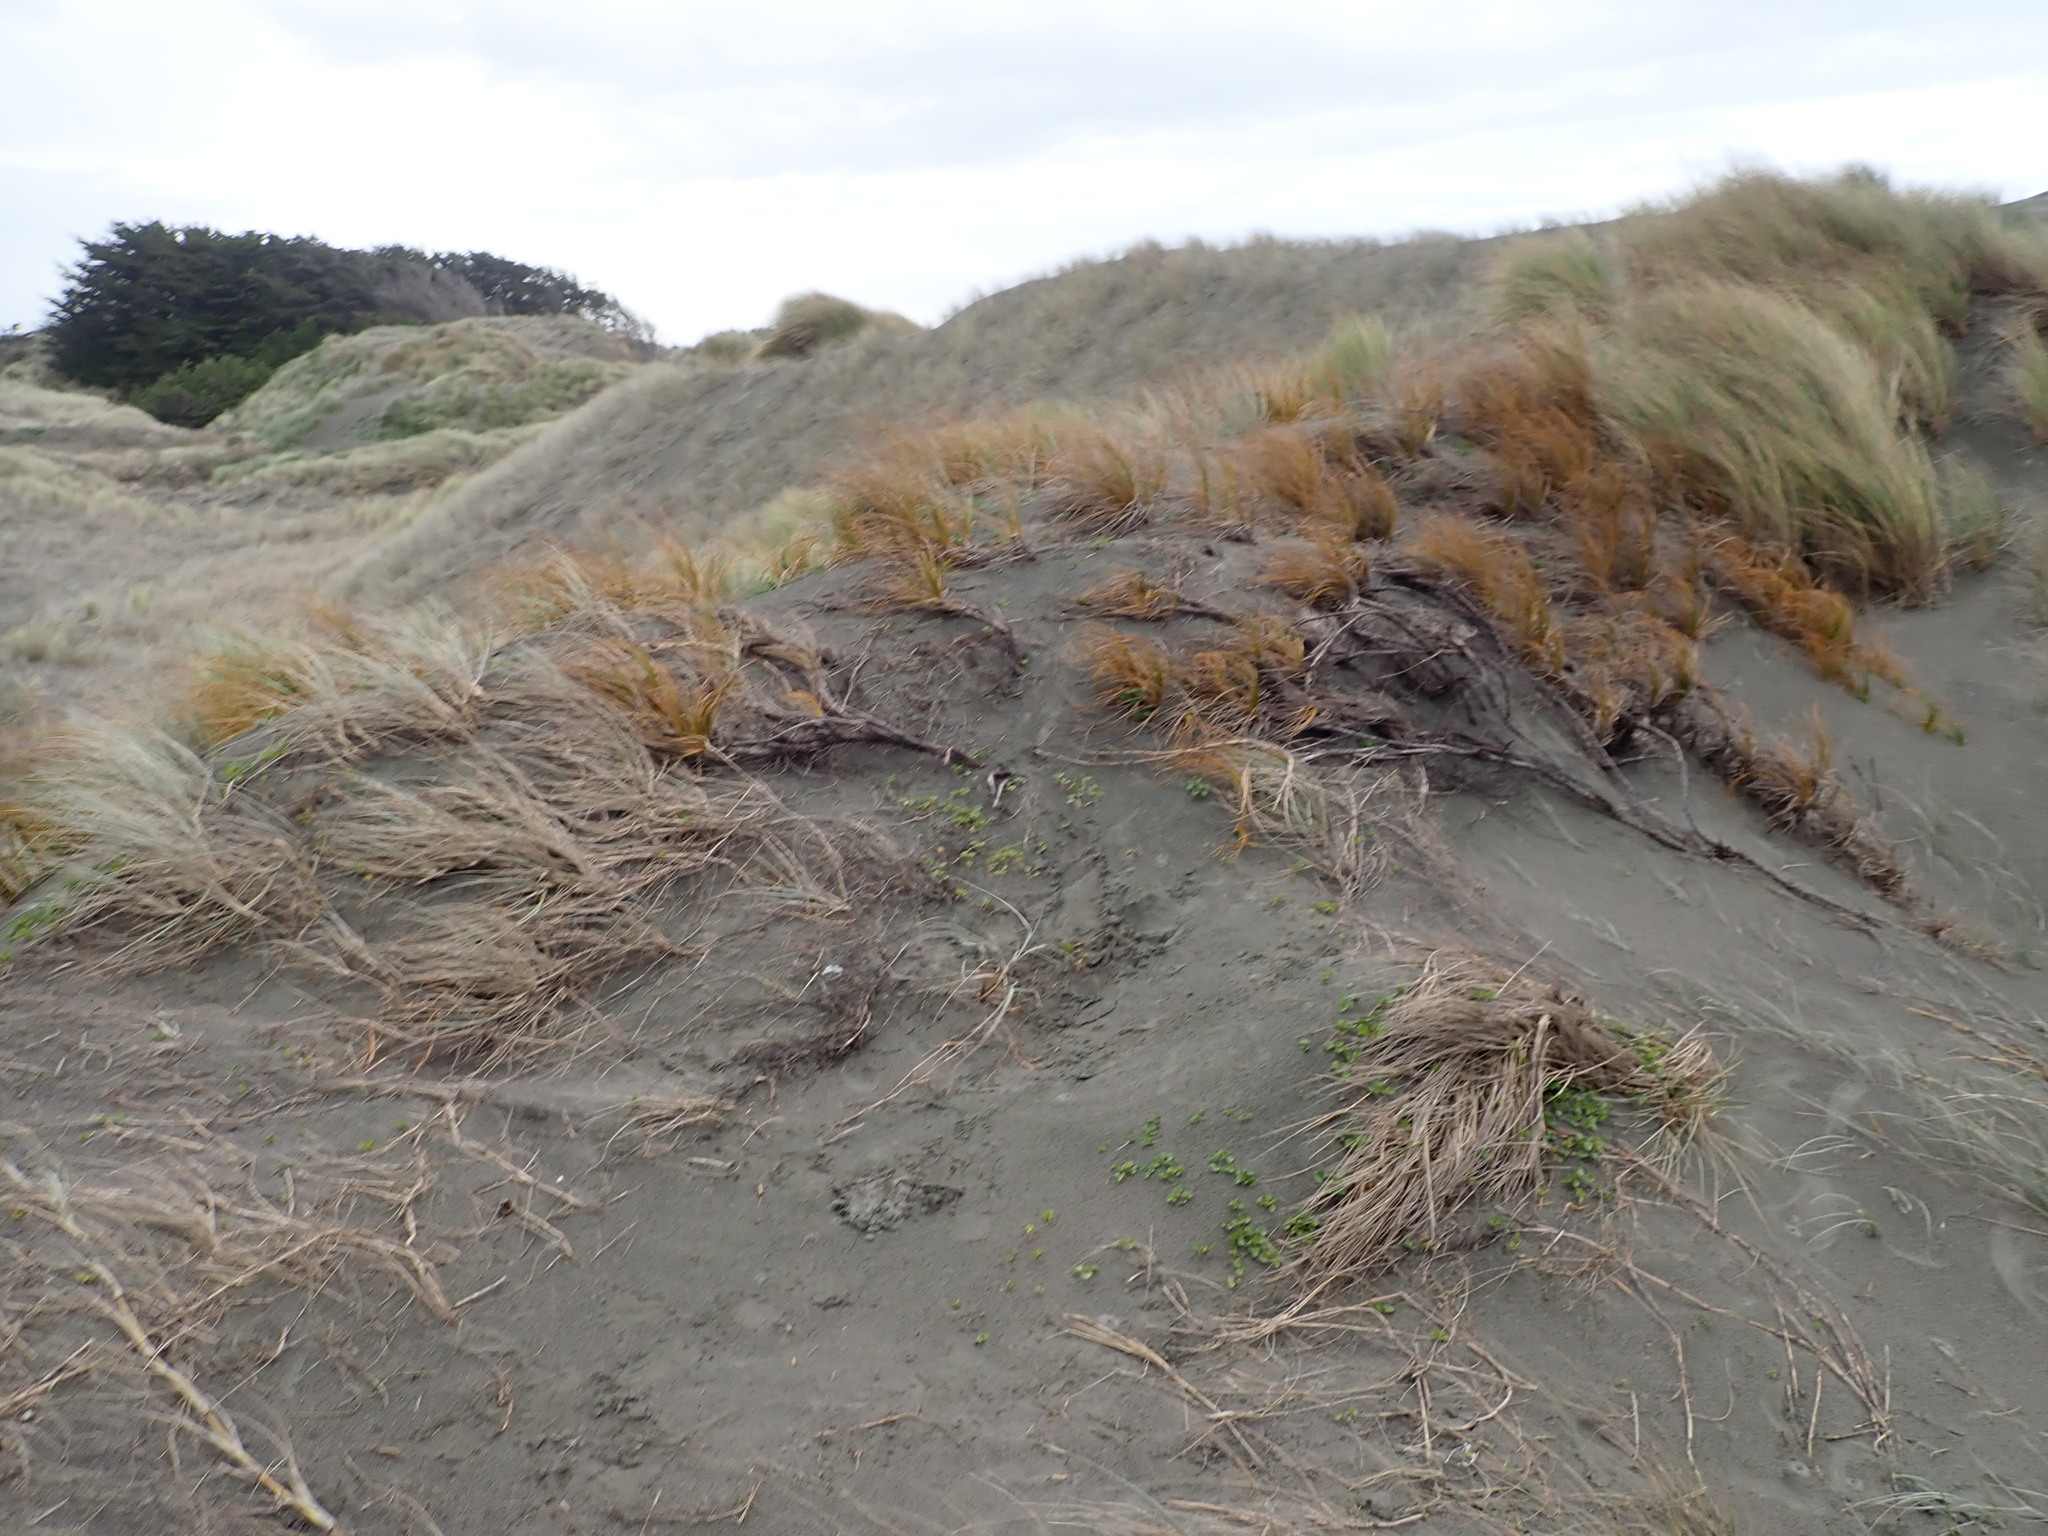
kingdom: Plantae
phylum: Tracheophyta
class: Liliopsida
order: Poales
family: Cyperaceae
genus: Ficinia
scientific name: Ficinia spiralis
